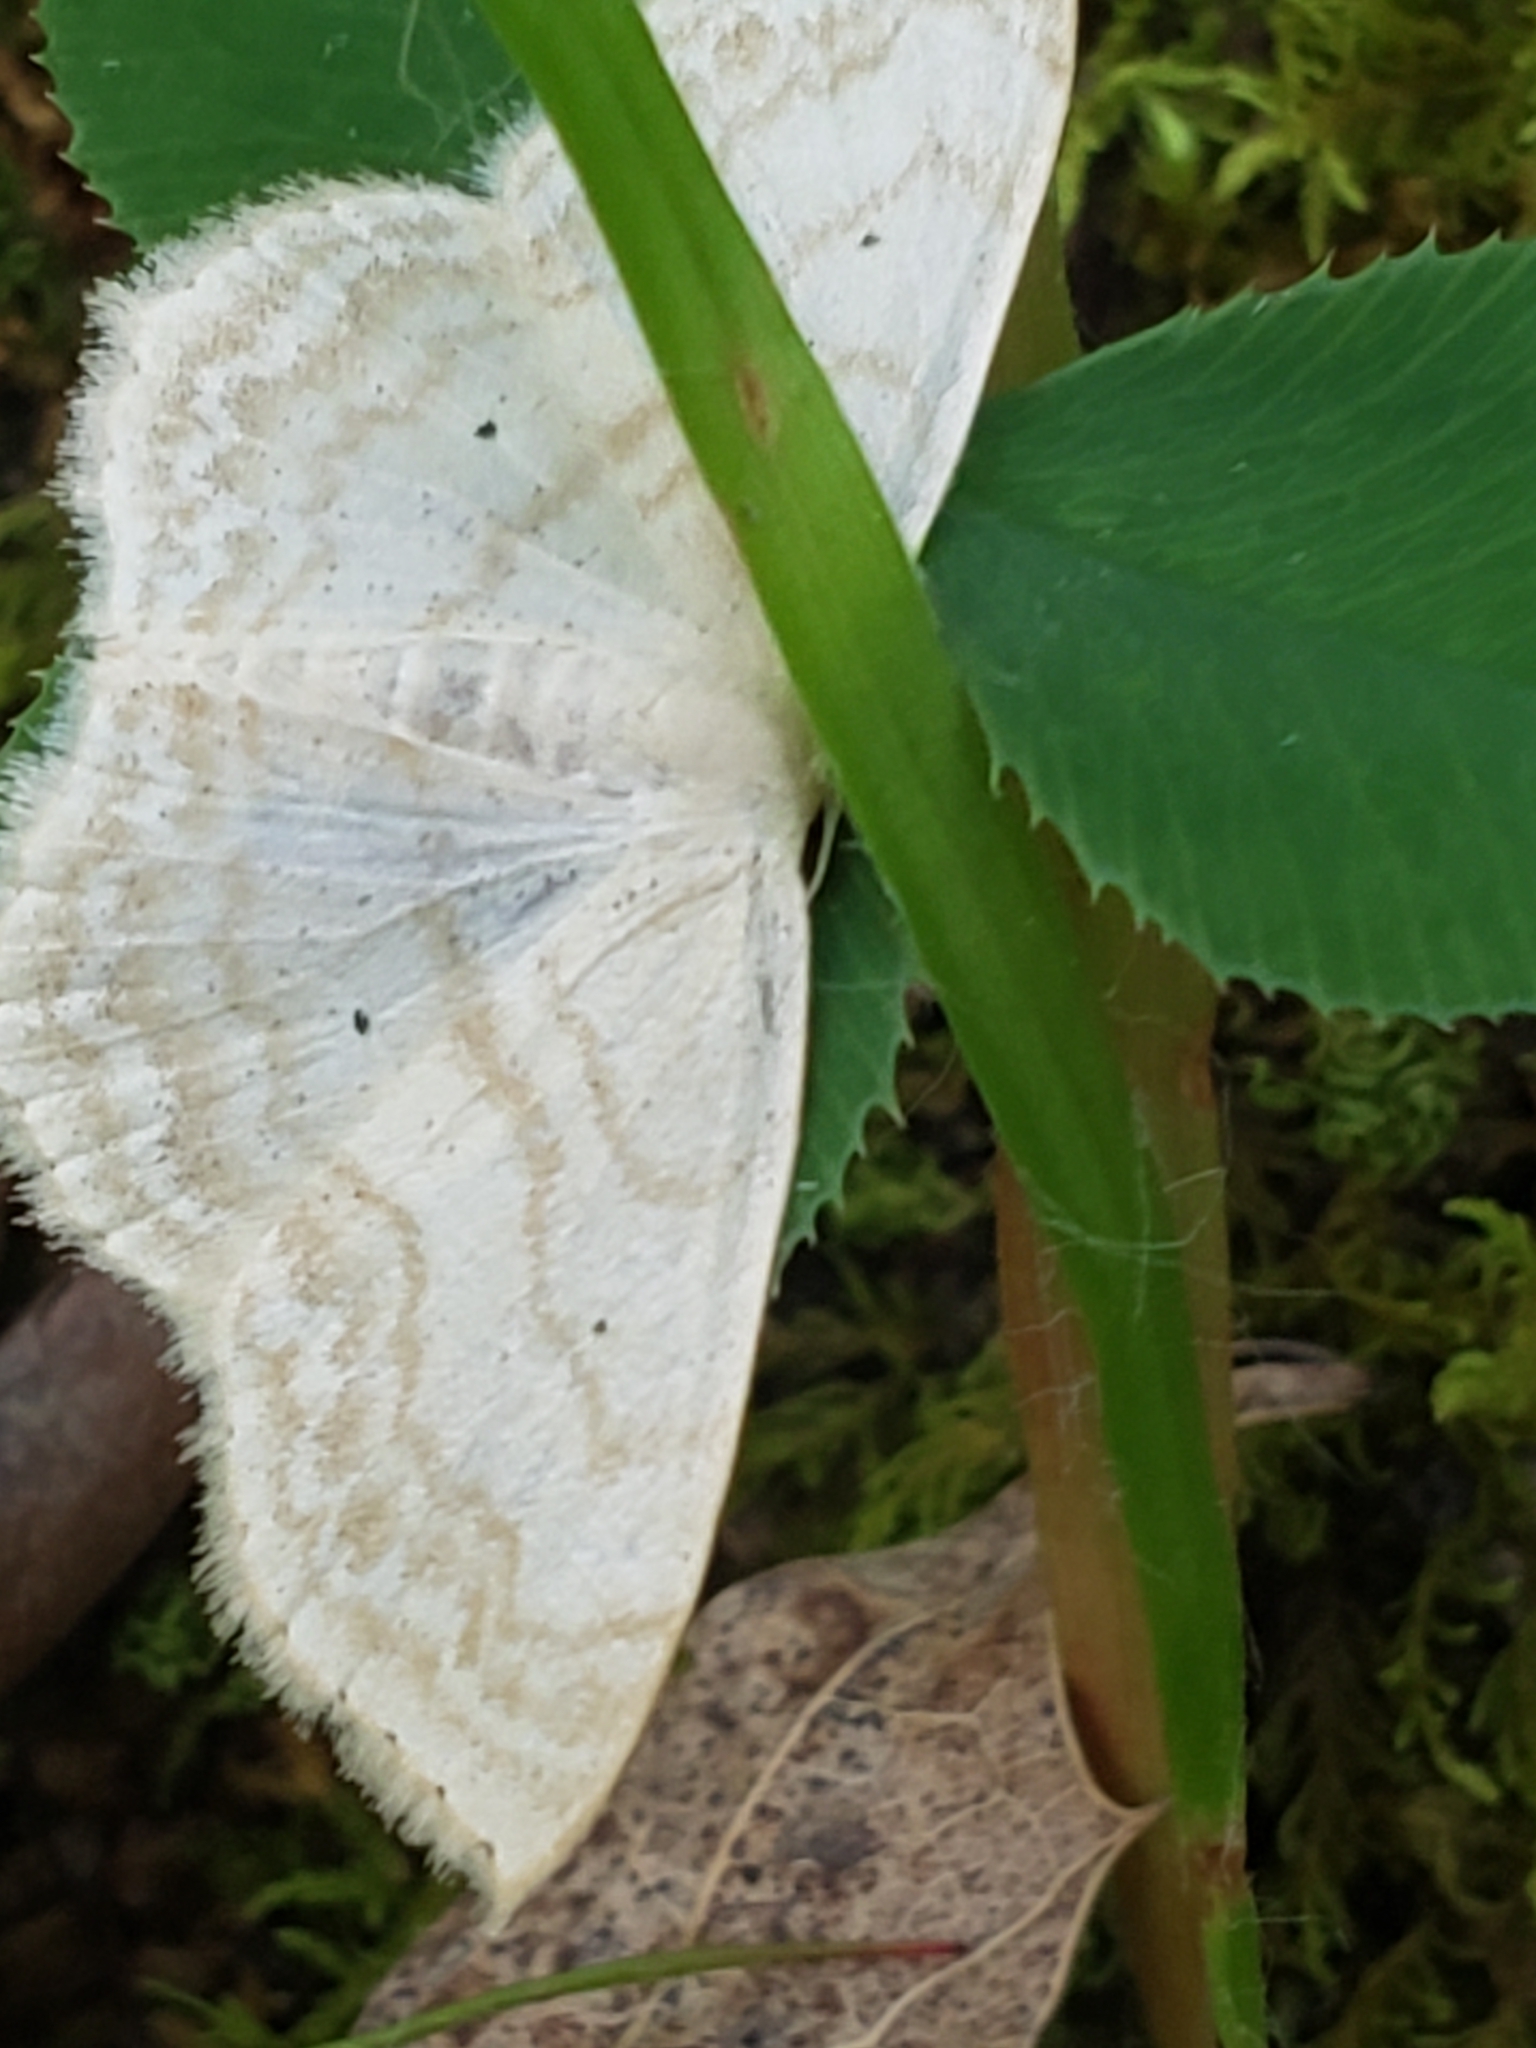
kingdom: Animalia
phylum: Arthropoda
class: Insecta
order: Lepidoptera
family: Geometridae
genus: Scopula
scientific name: Scopula limboundata
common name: Large lace border
